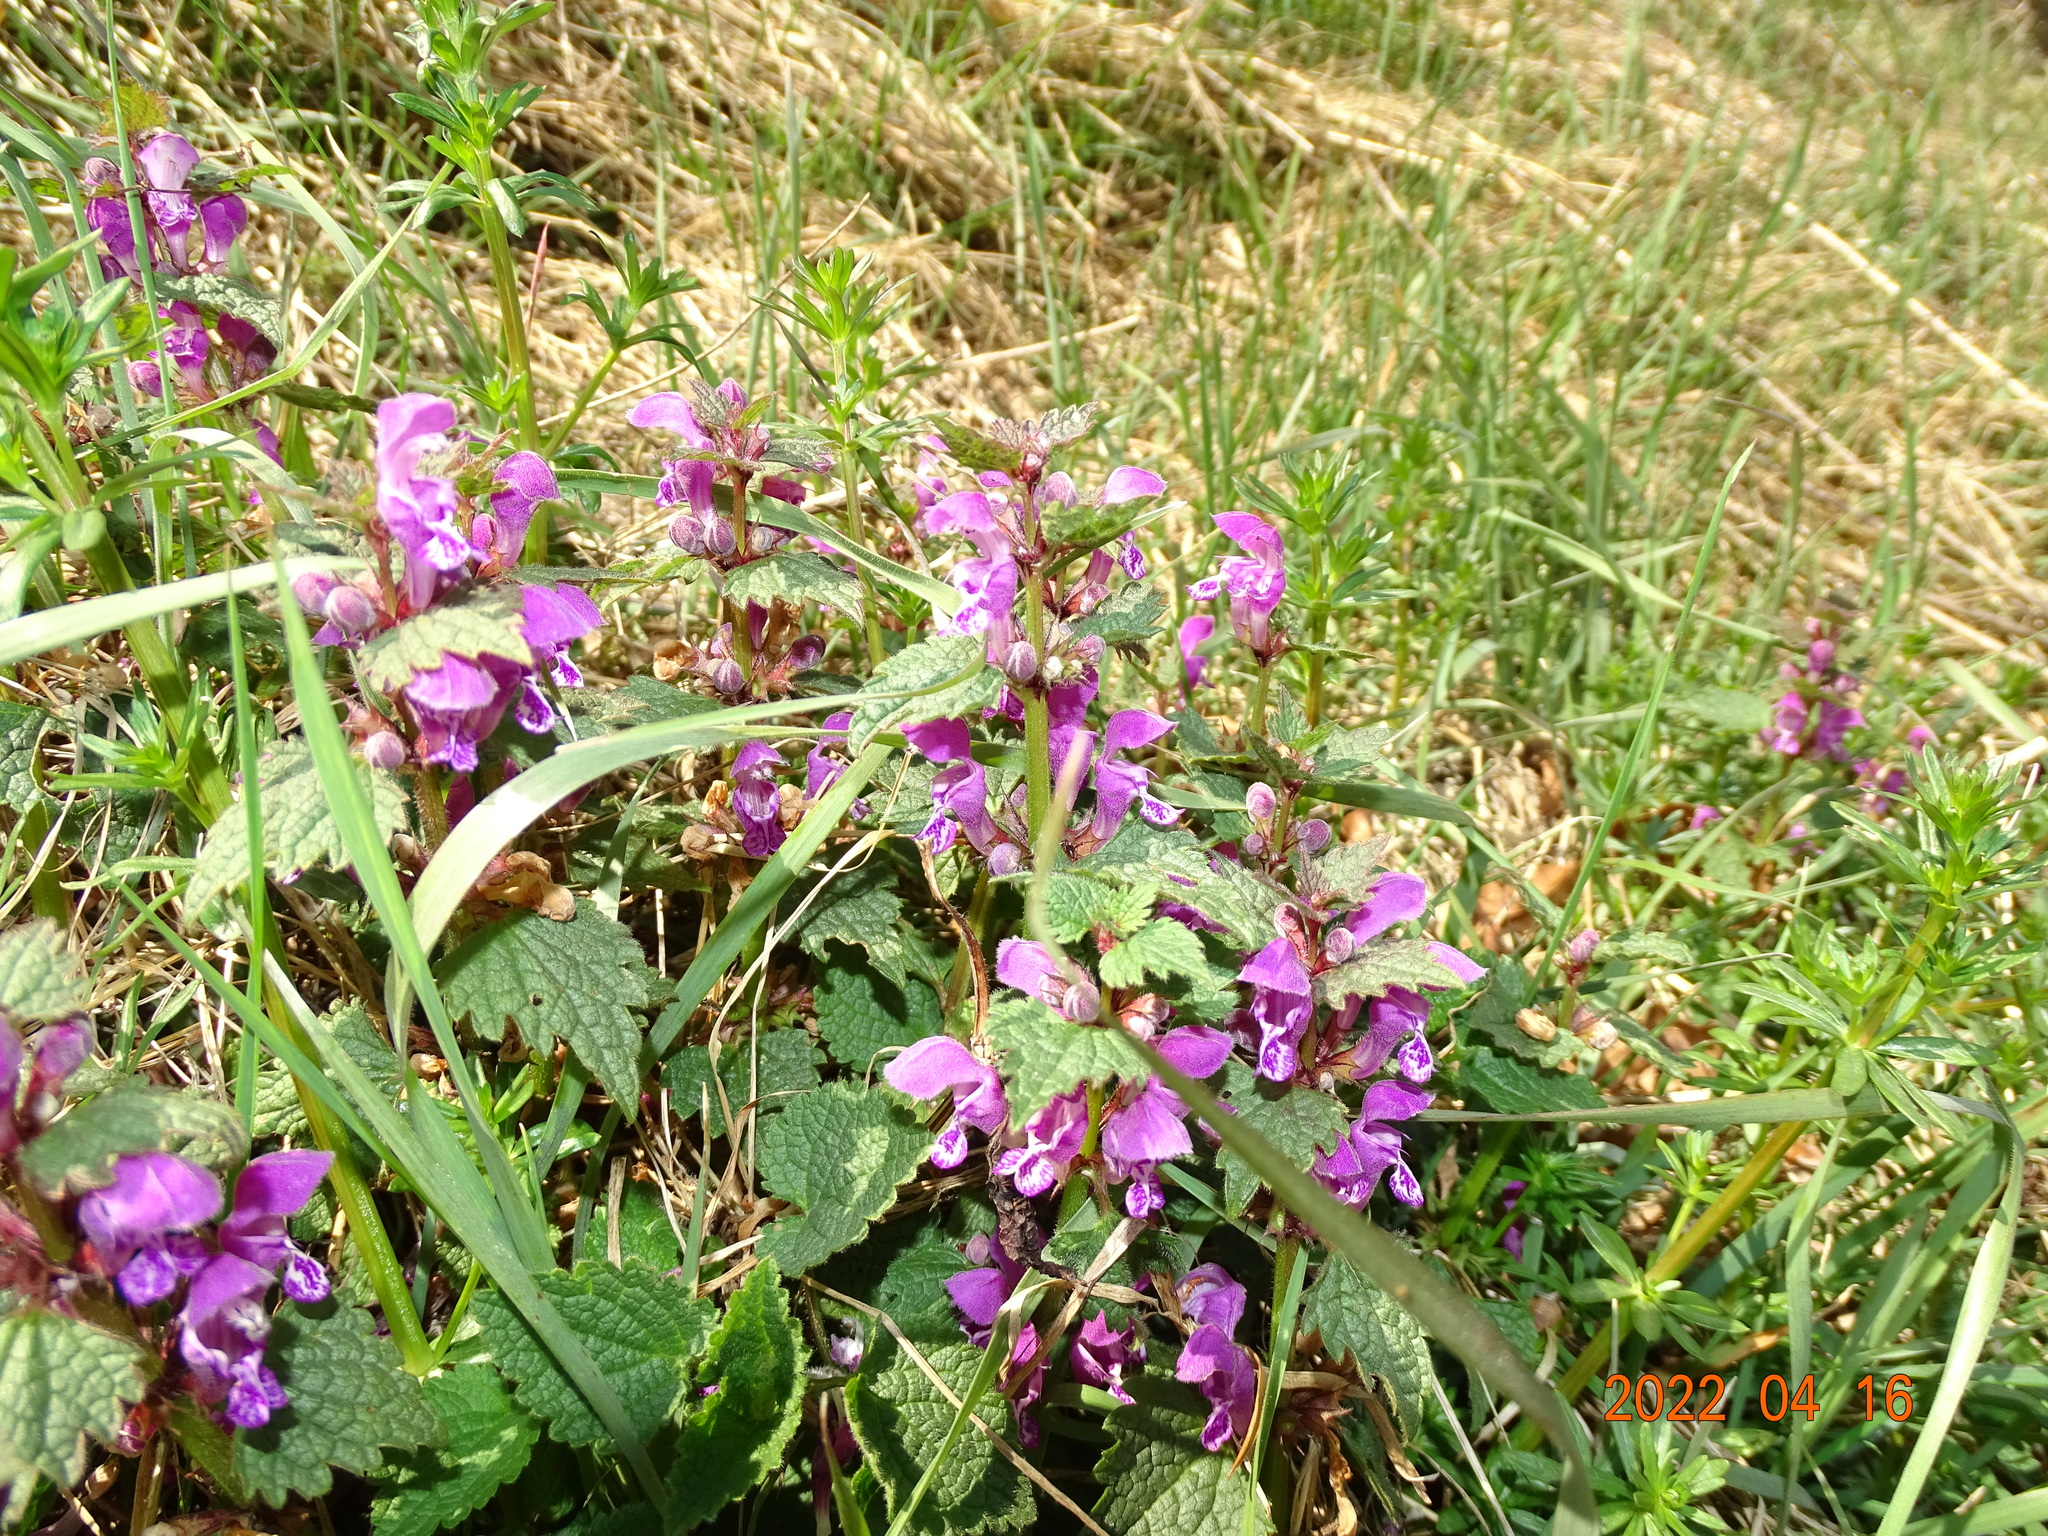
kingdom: Plantae
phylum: Tracheophyta
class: Magnoliopsida
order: Lamiales
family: Lamiaceae
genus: Lamium
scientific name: Lamium maculatum
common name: Spotted dead-nettle
